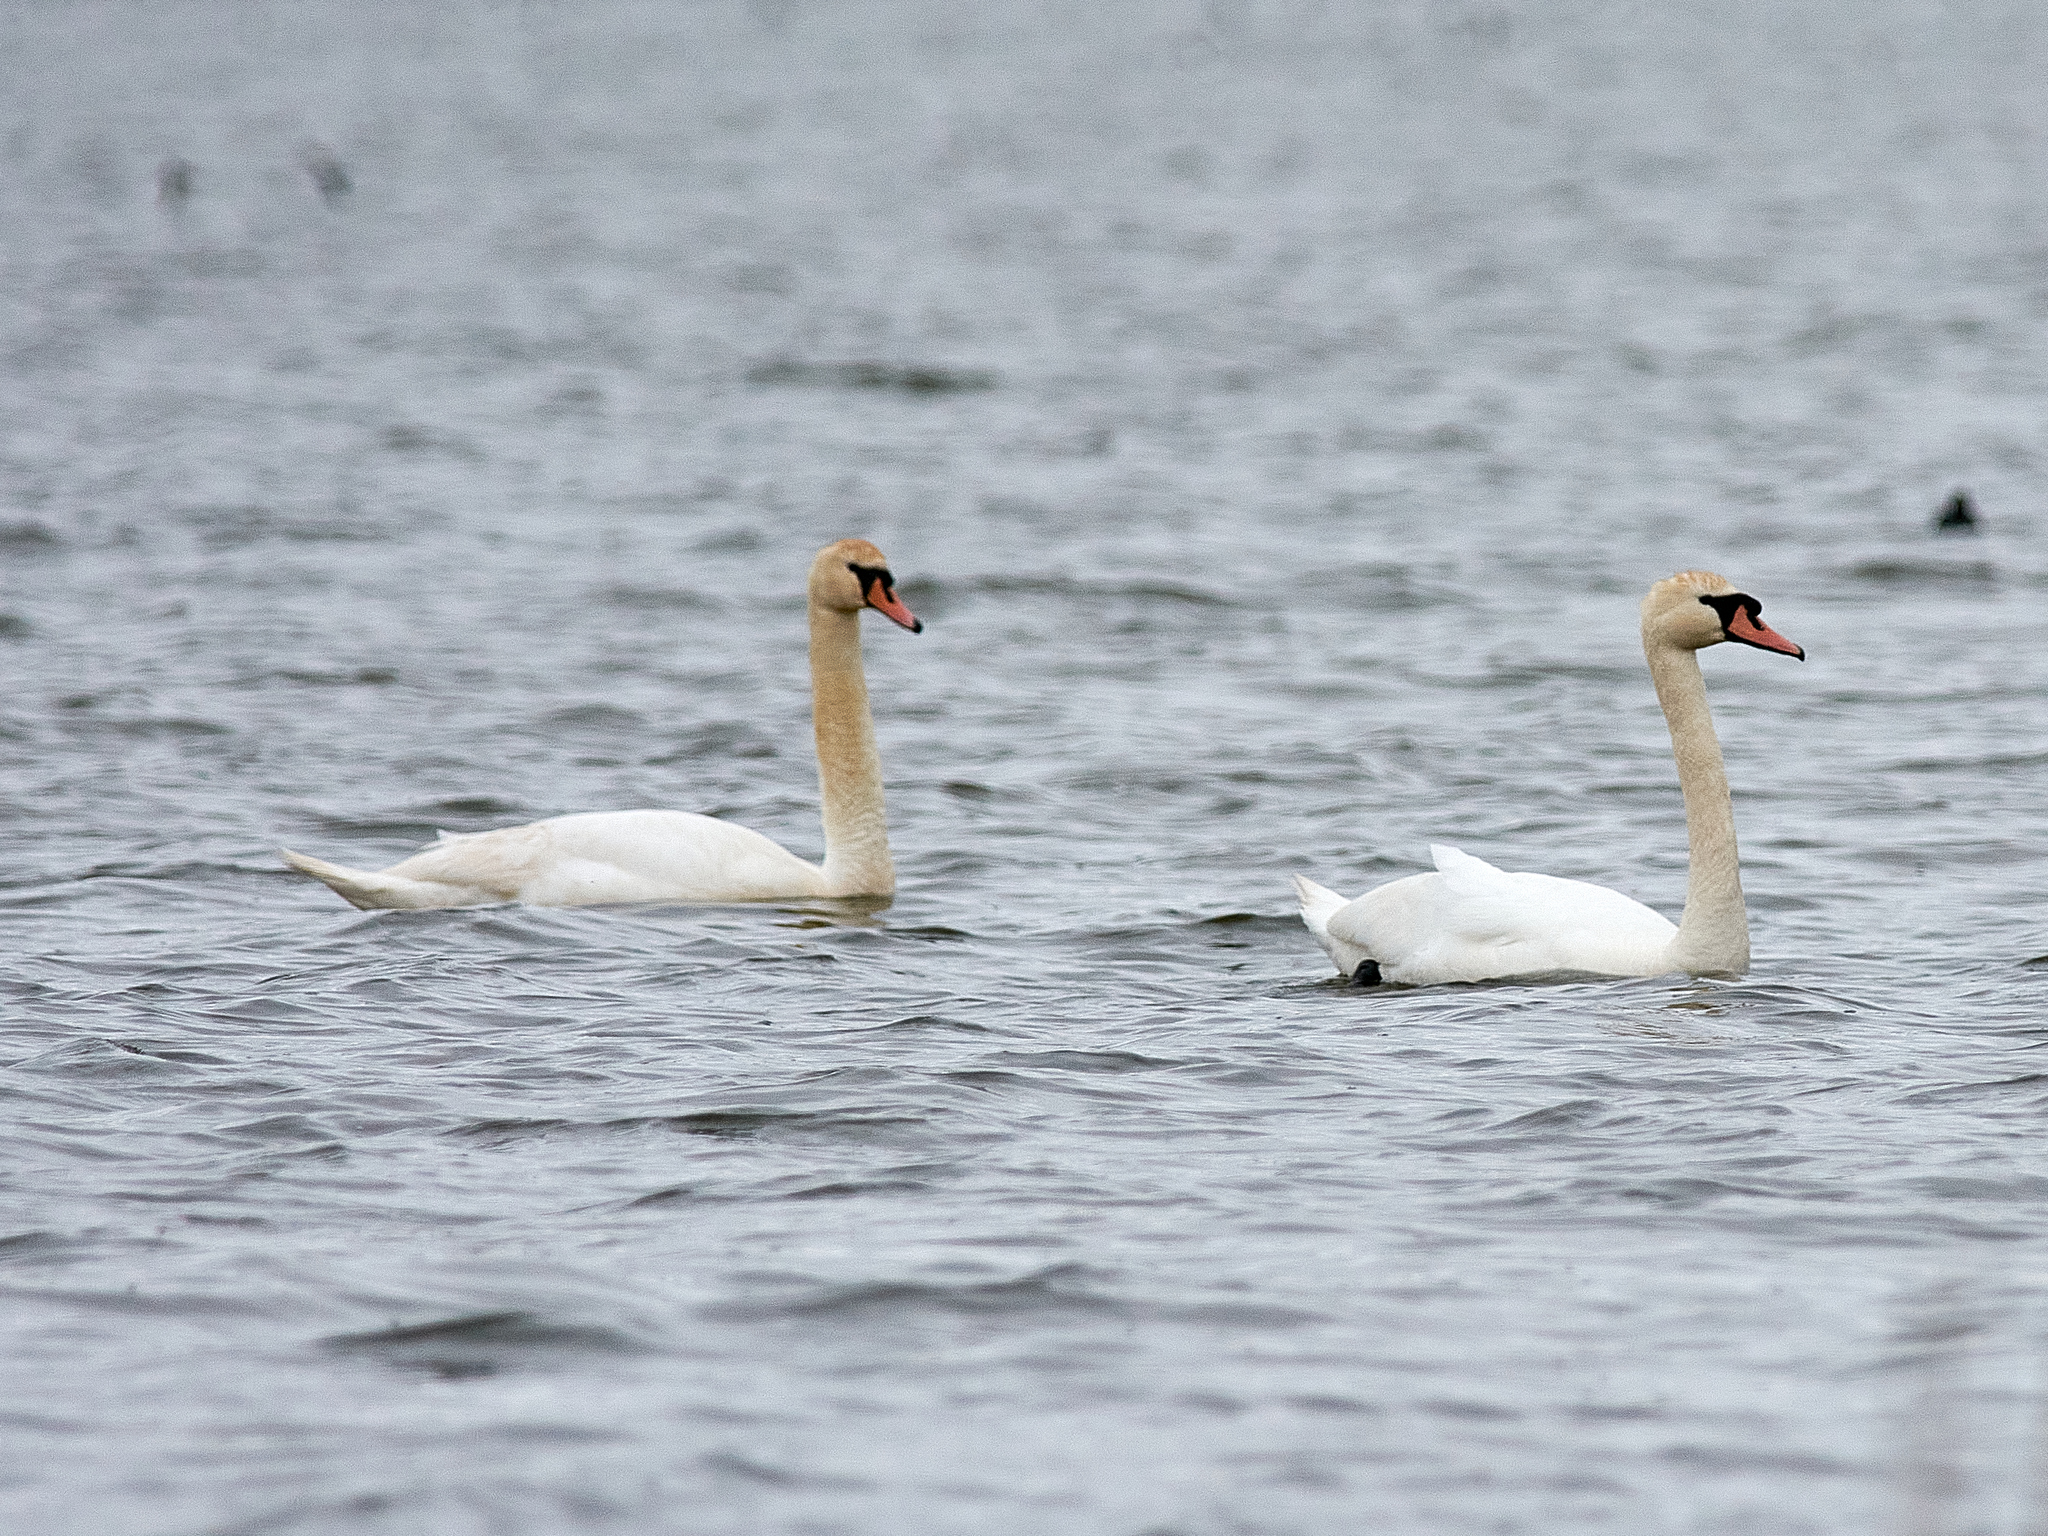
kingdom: Animalia
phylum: Chordata
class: Aves
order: Anseriformes
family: Anatidae
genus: Cygnus
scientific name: Cygnus olor
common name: Mute swan
